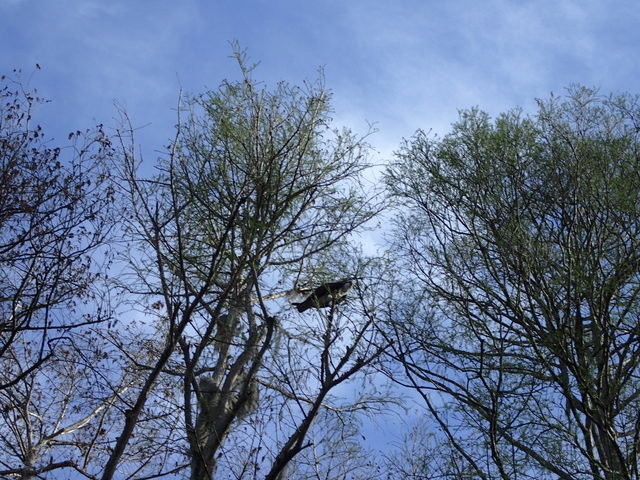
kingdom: Animalia
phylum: Chordata
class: Aves
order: Accipitriformes
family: Pandionidae
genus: Pandion
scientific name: Pandion haliaetus
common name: Osprey
